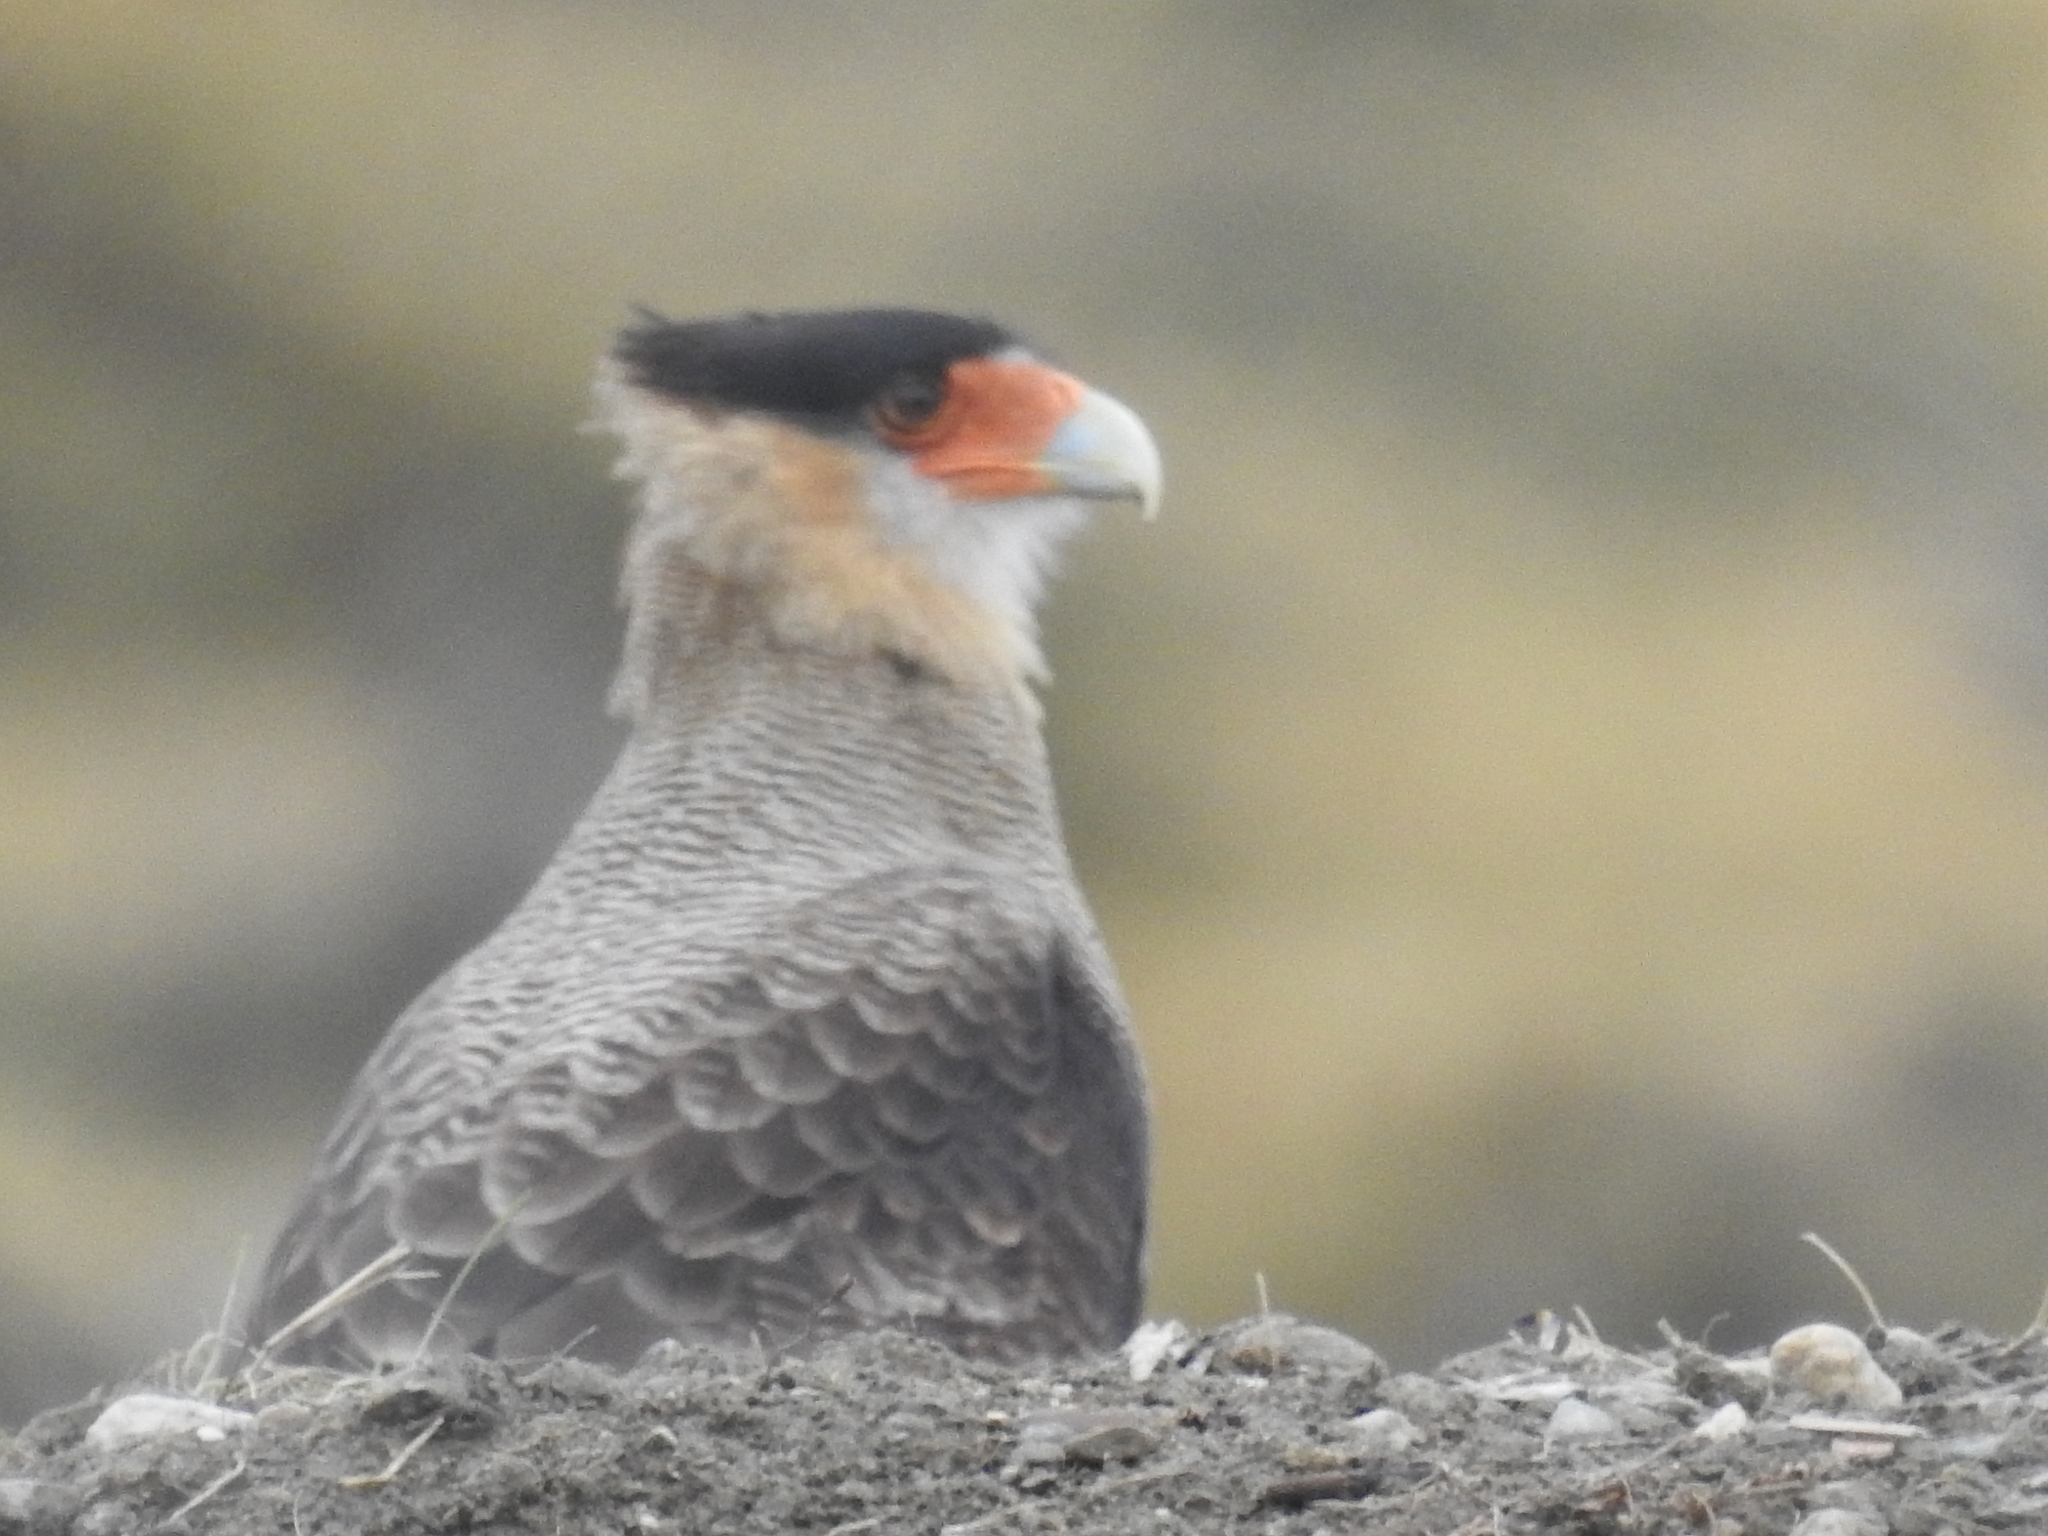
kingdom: Animalia
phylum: Chordata
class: Aves
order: Falconiformes
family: Falconidae
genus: Caracara
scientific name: Caracara plancus
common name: Southern caracara
